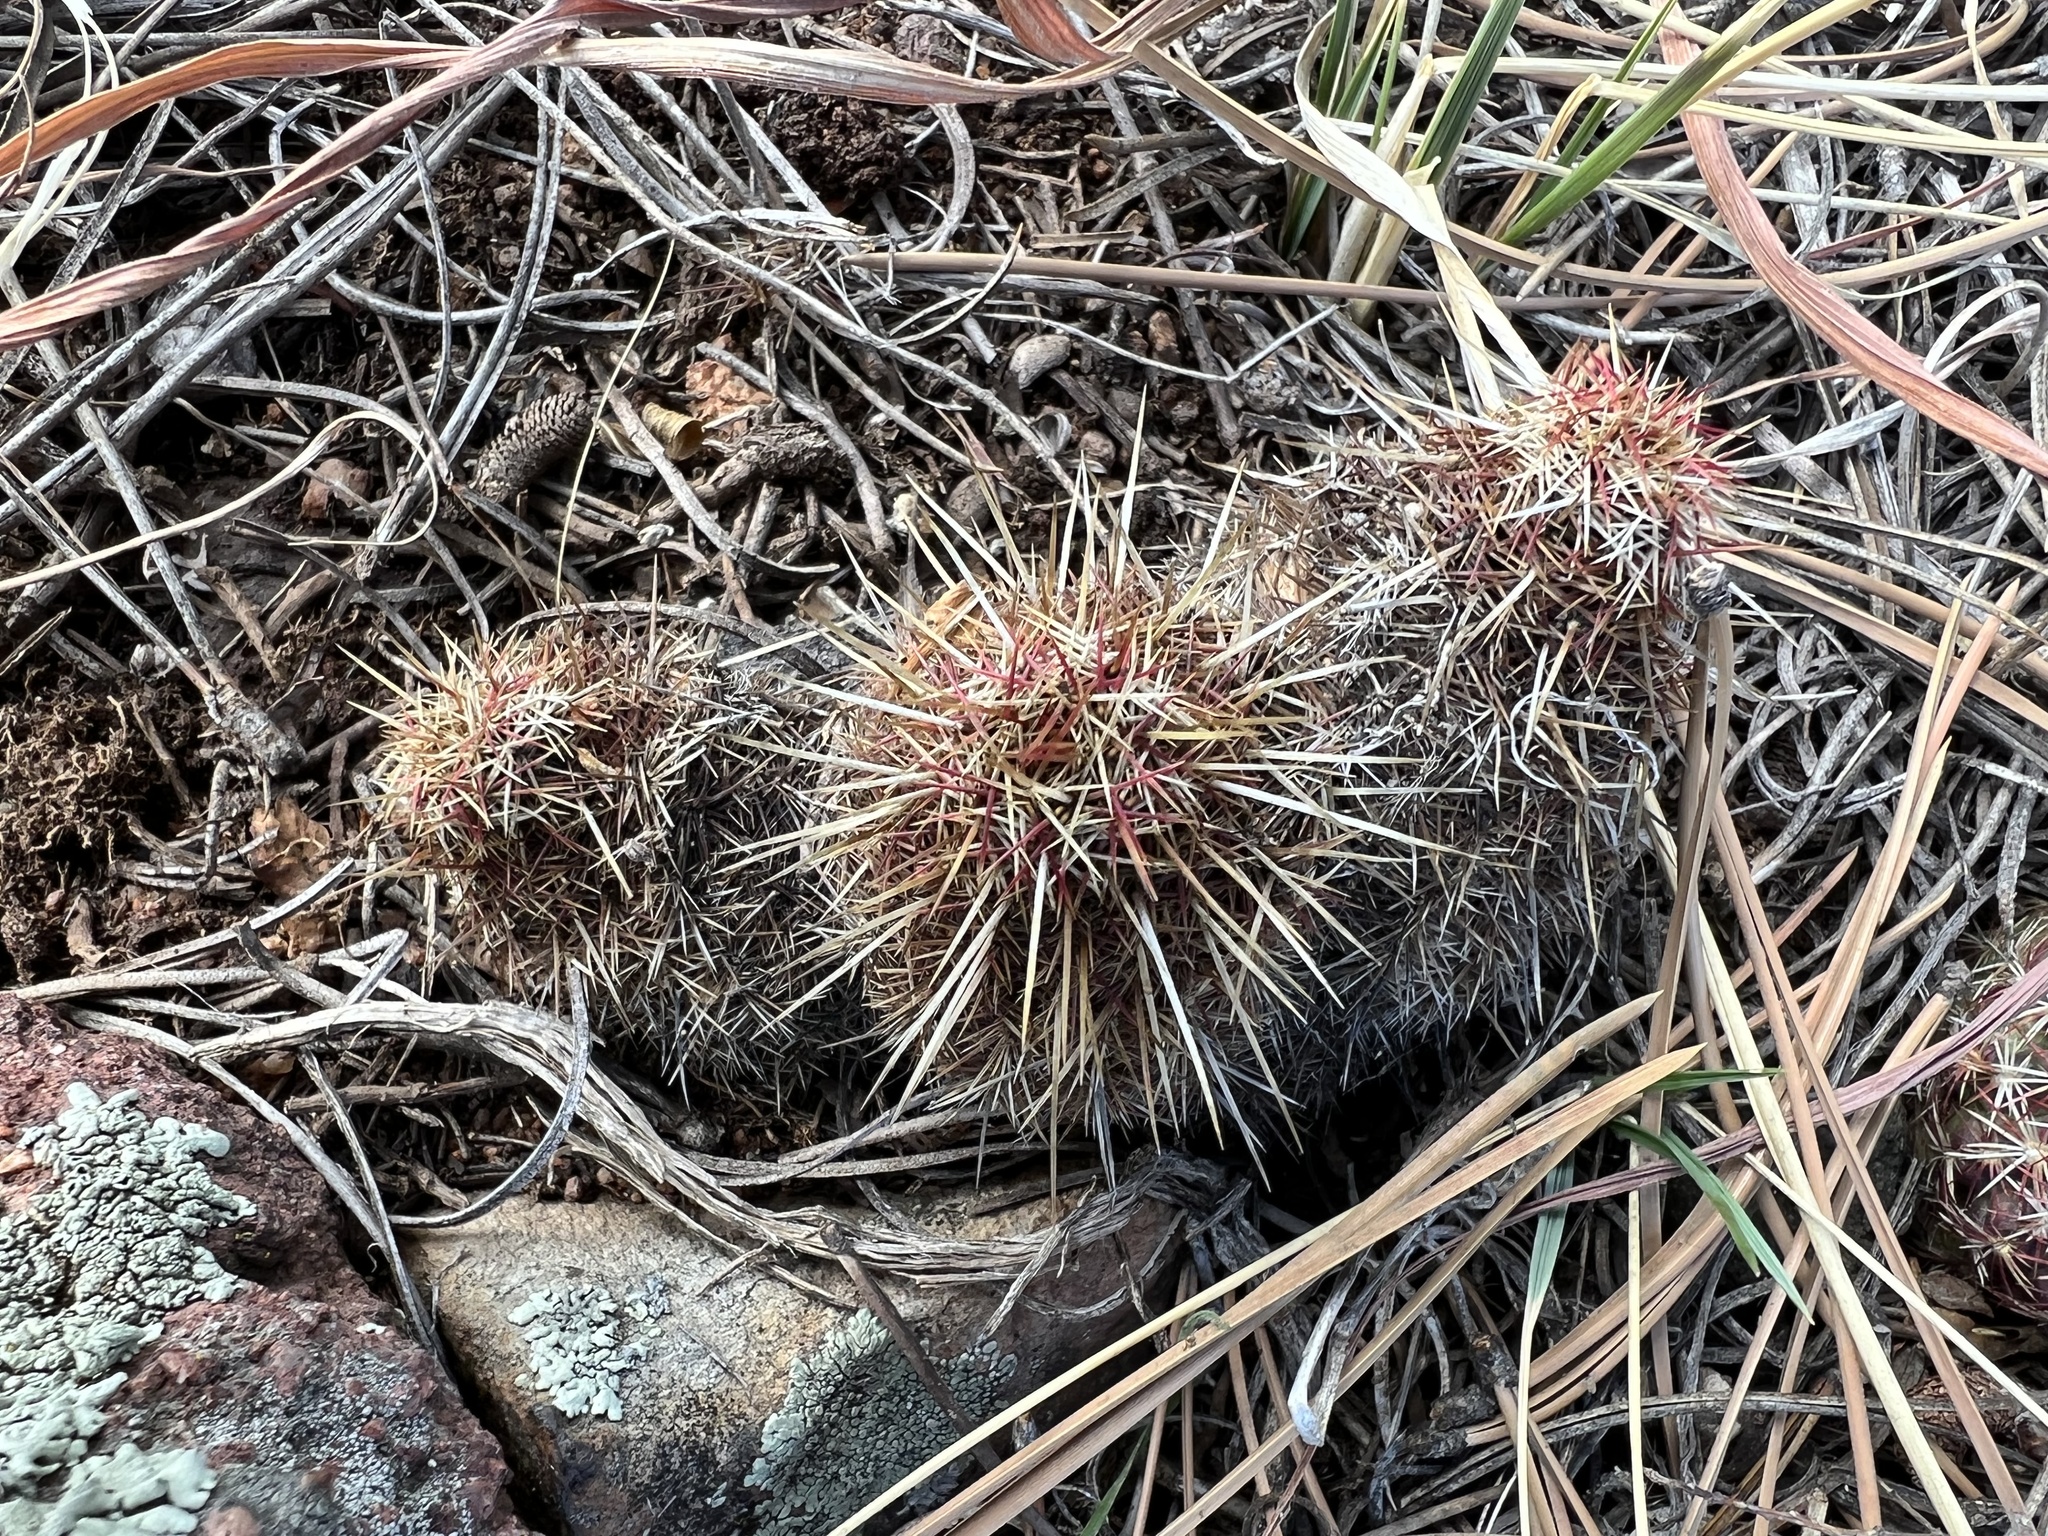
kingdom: Plantae
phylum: Tracheophyta
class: Magnoliopsida
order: Caryophyllales
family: Cactaceae
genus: Echinocereus
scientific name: Echinocereus viridiflorus
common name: Nylon hedgehog cactus
